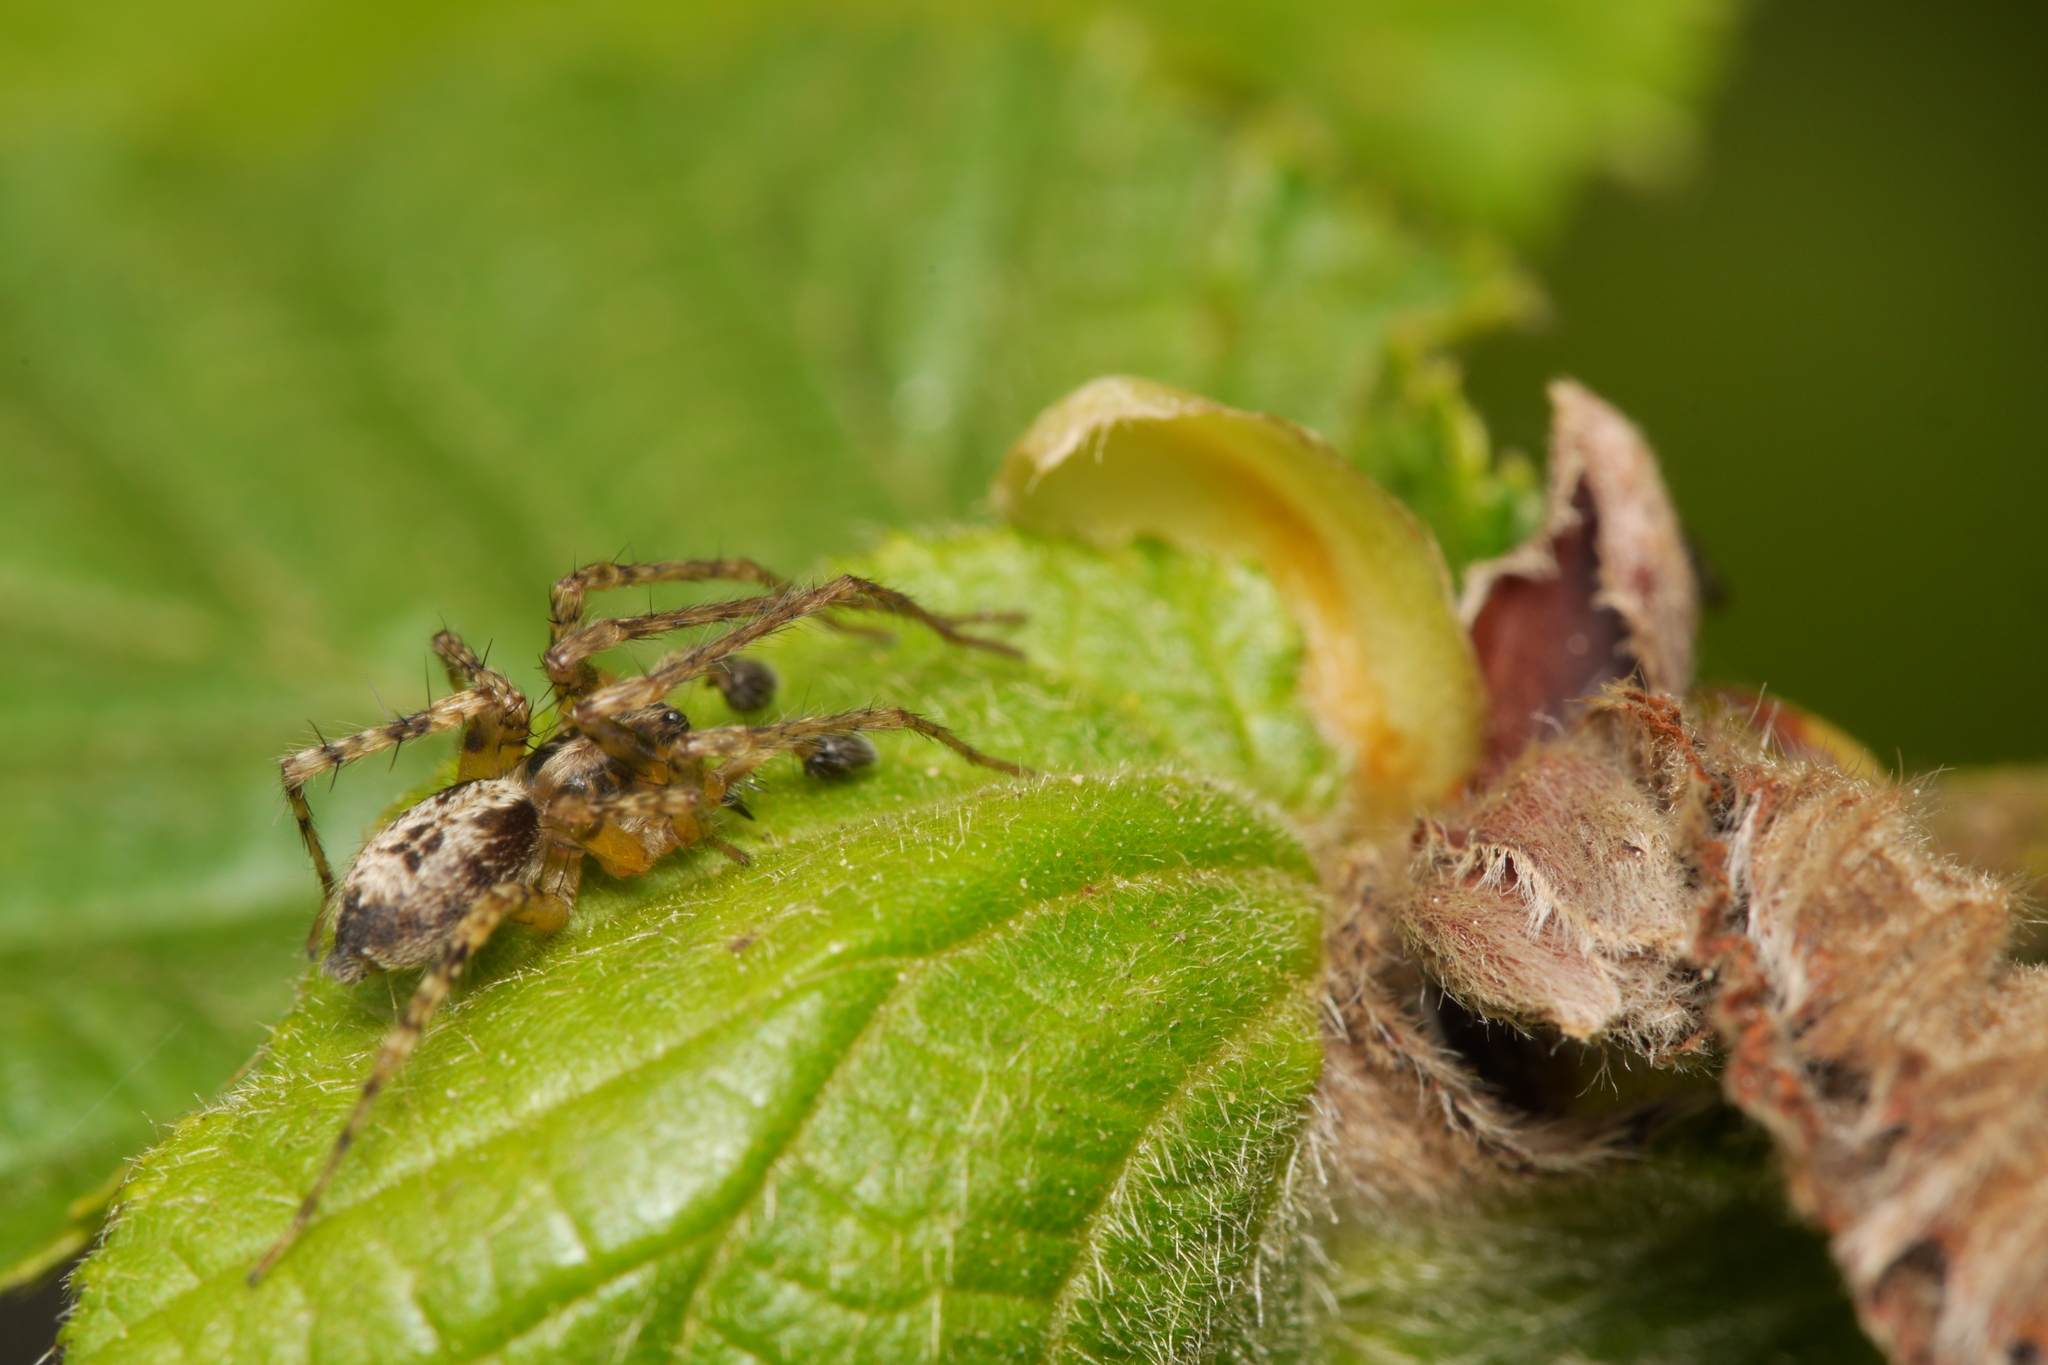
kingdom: Animalia
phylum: Arthropoda
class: Arachnida
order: Araneae
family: Anyphaenidae
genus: Anyphaena
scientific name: Anyphaena accentuata
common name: Buzzing spider
